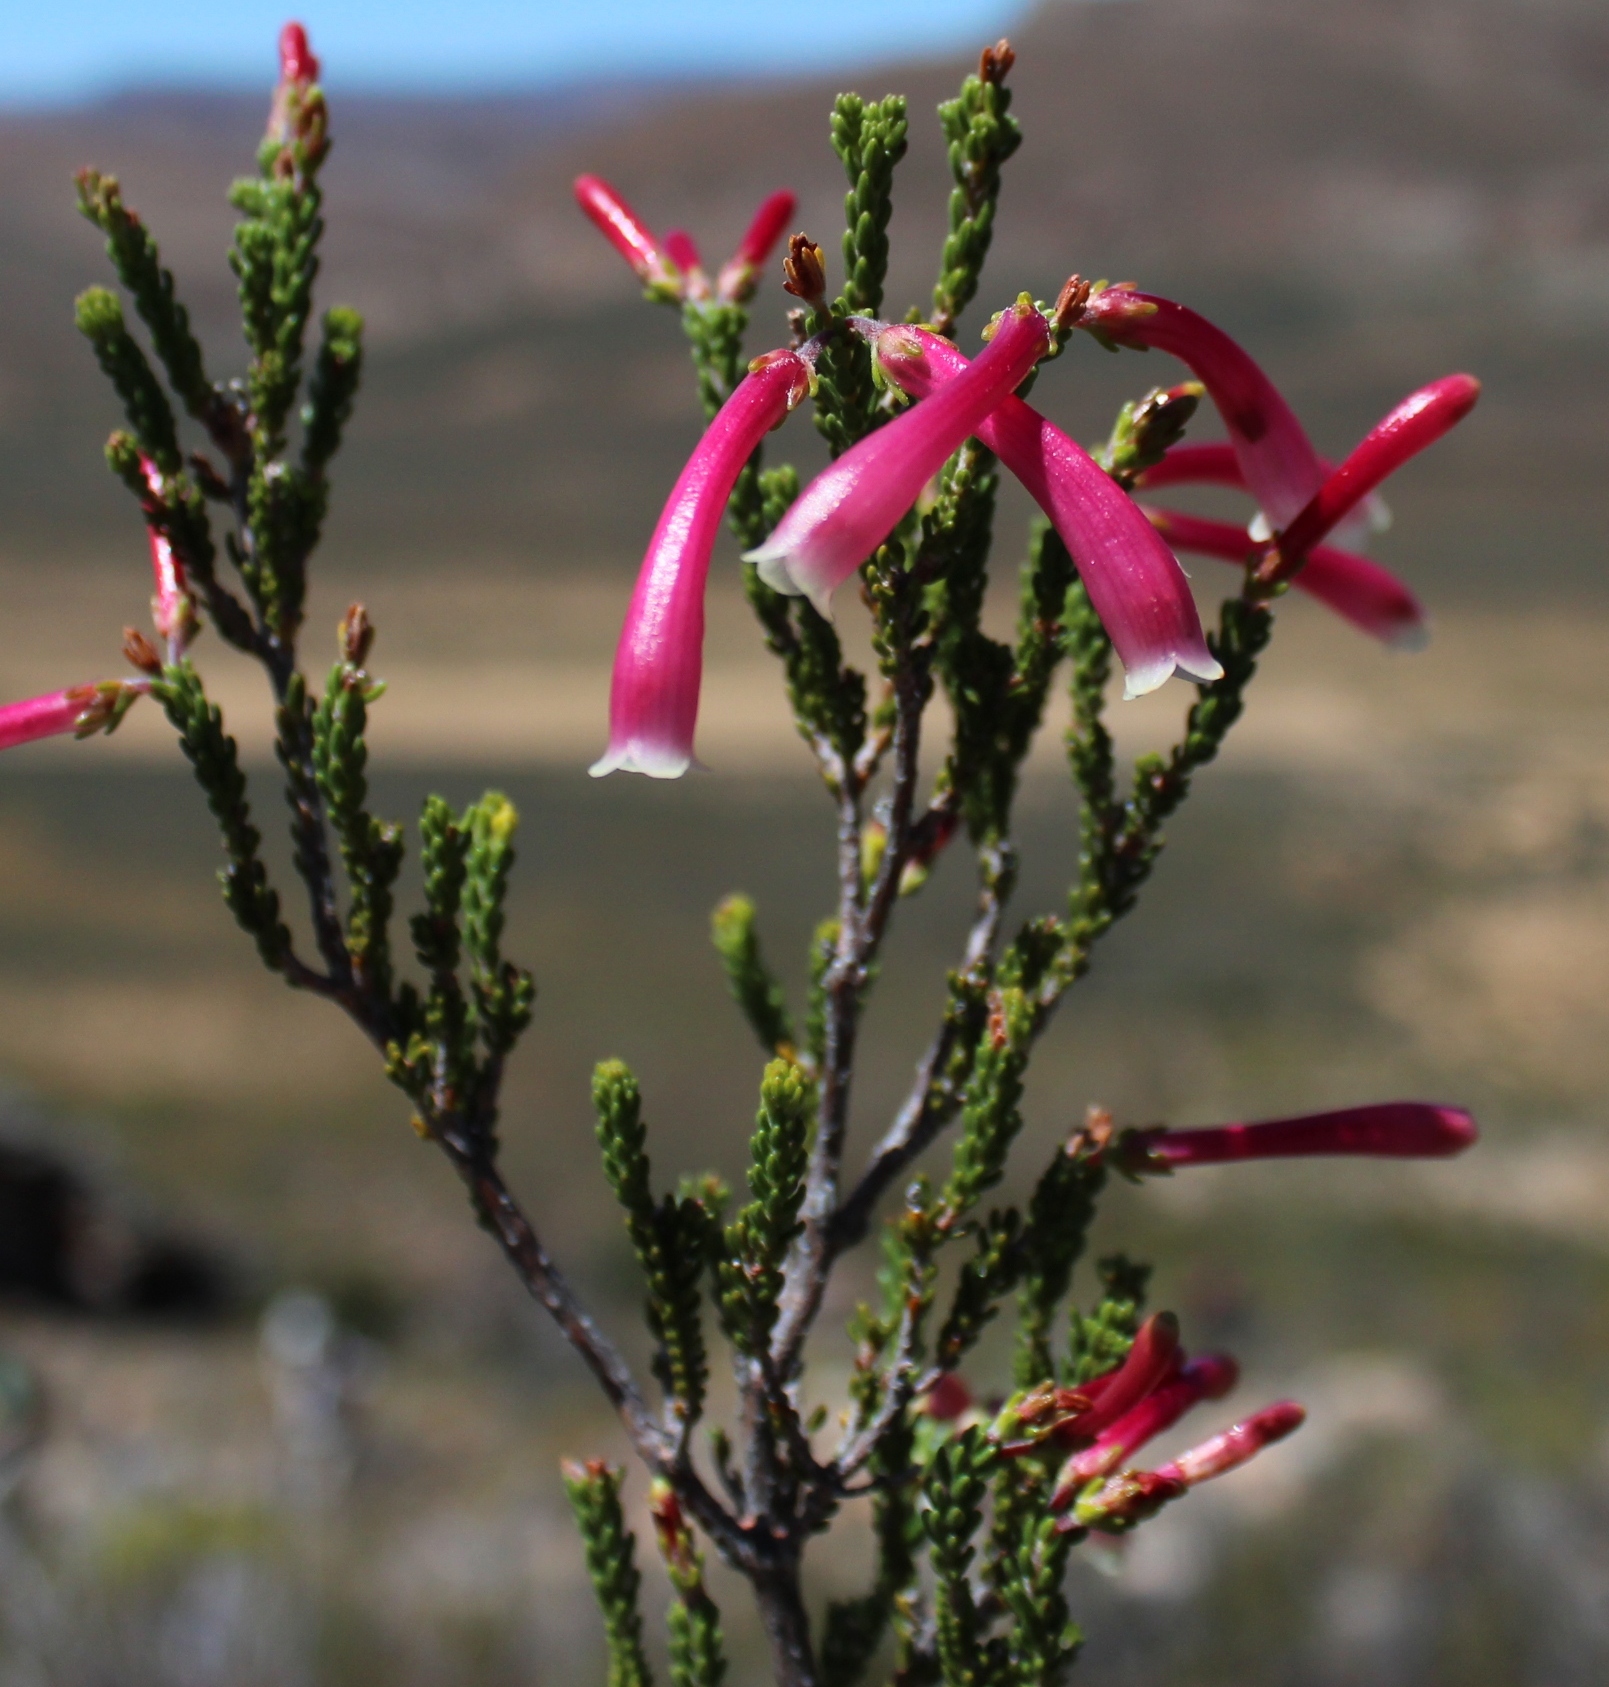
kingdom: Plantae
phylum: Tracheophyta
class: Magnoliopsida
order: Ericales
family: Ericaceae
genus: Erica
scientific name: Erica discolor
